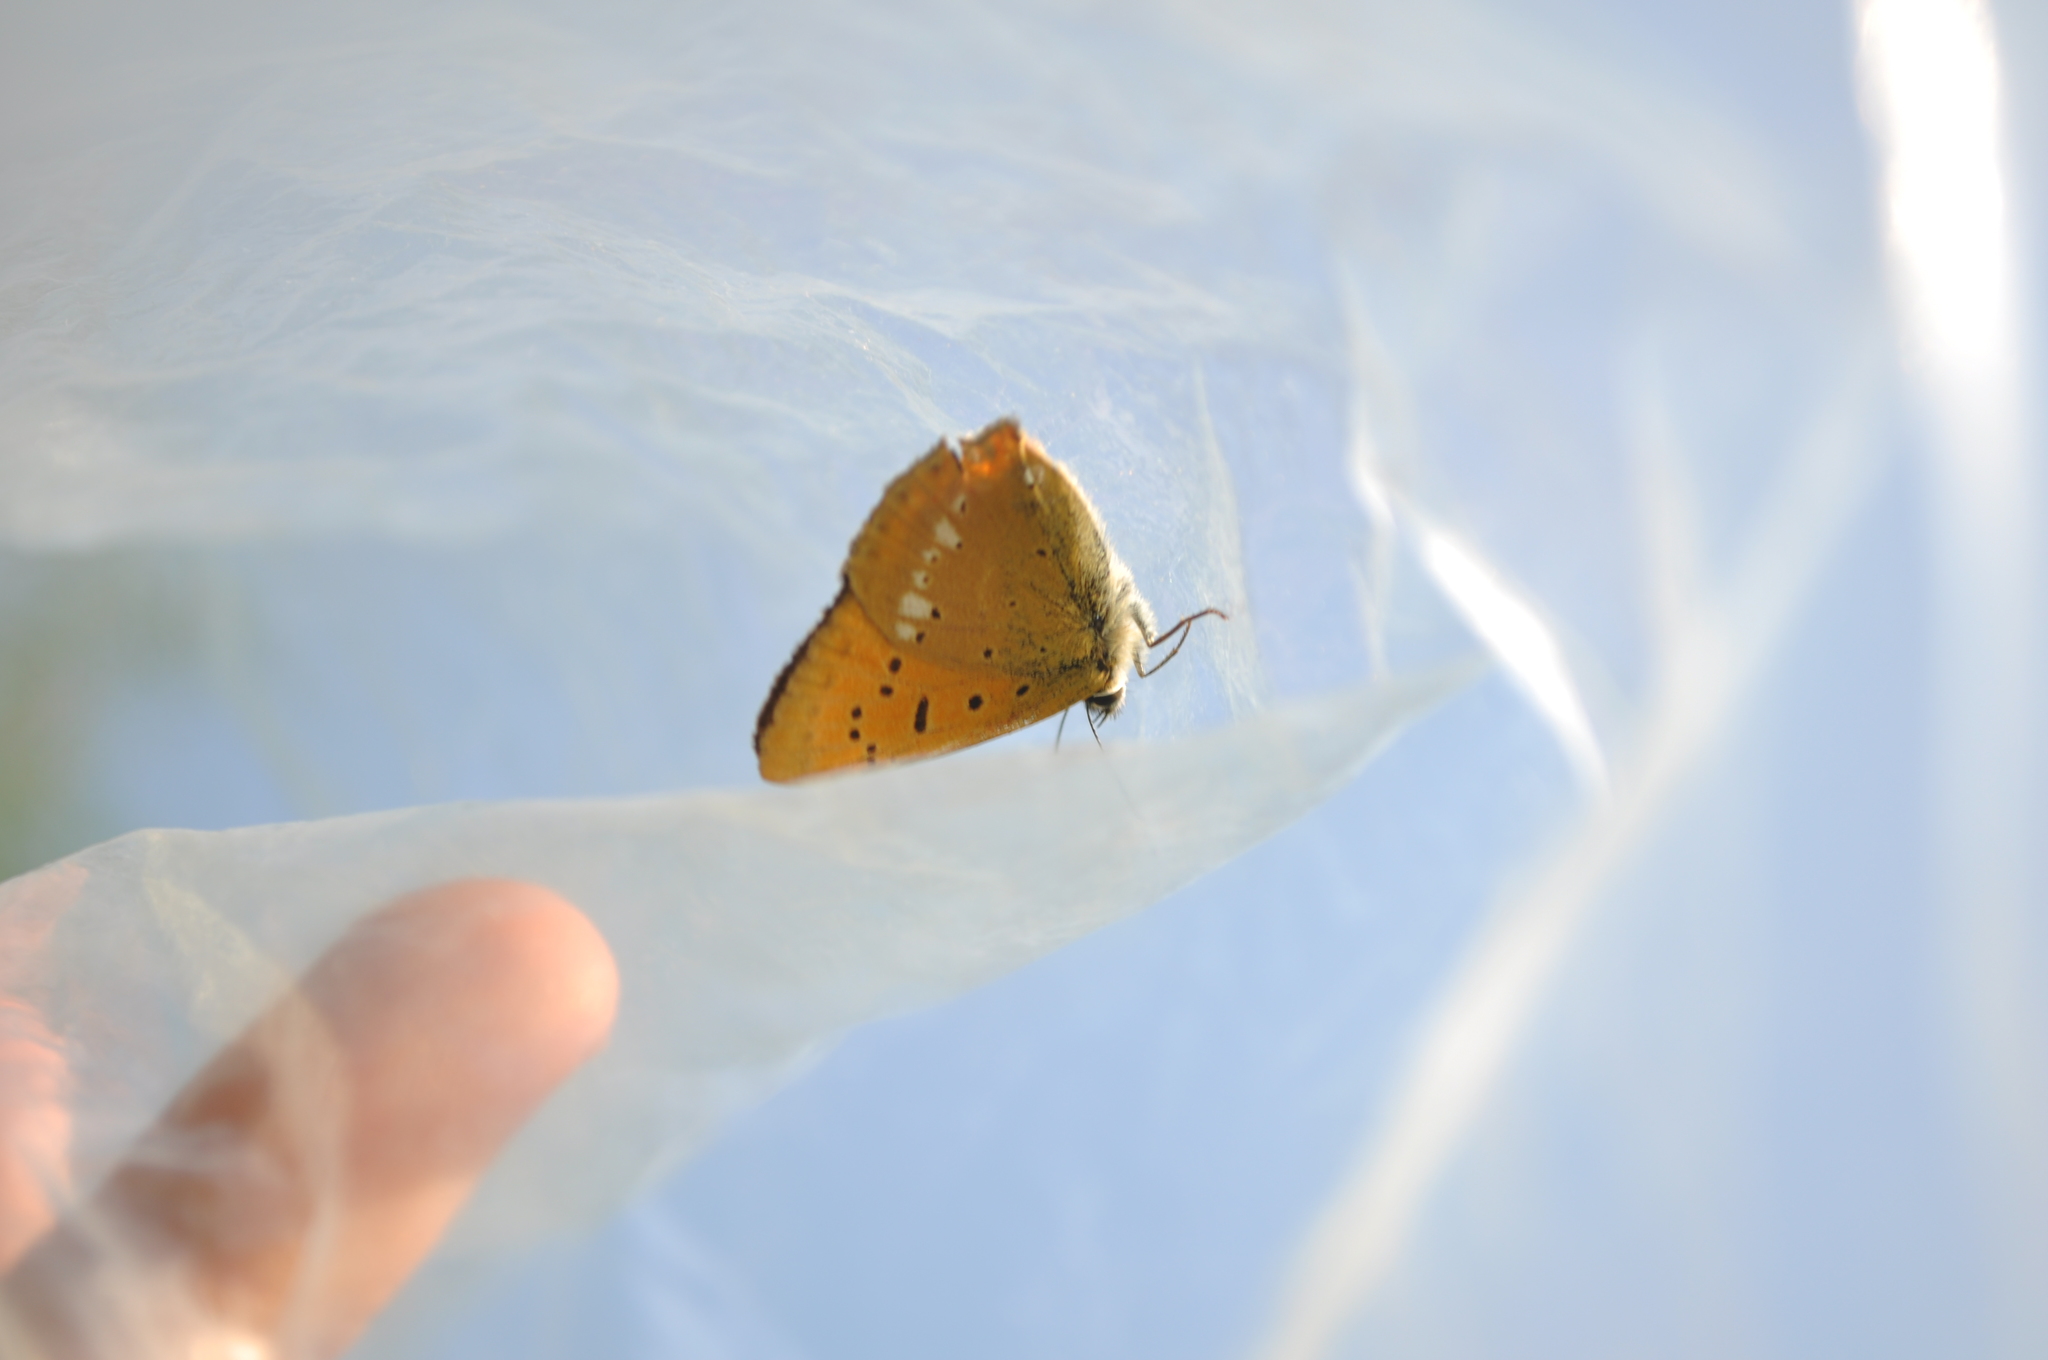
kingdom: Animalia
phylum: Arthropoda
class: Insecta
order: Lepidoptera
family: Lycaenidae
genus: Lycaena
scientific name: Lycaena virgaureae
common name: Scarce copper
